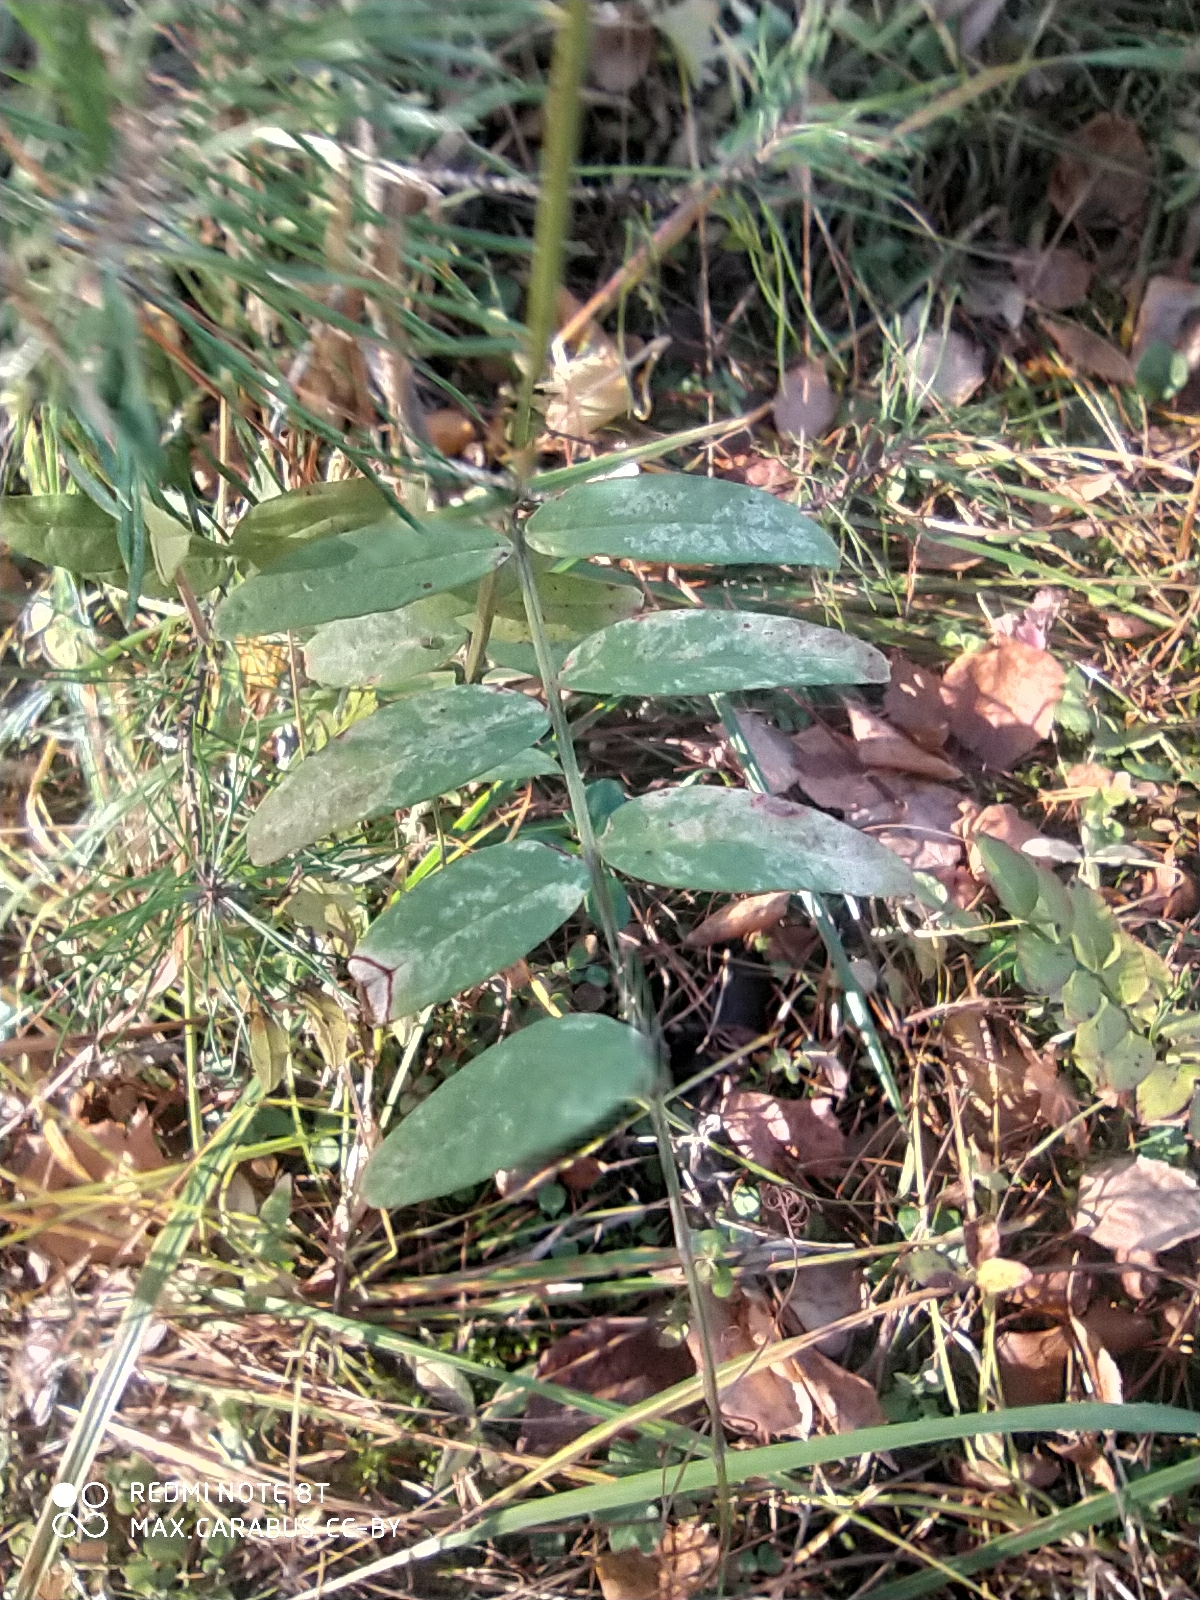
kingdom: Plantae
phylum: Tracheophyta
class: Magnoliopsida
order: Fabales
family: Fabaceae
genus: Vicia
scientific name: Vicia sepium
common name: Bush vetch
